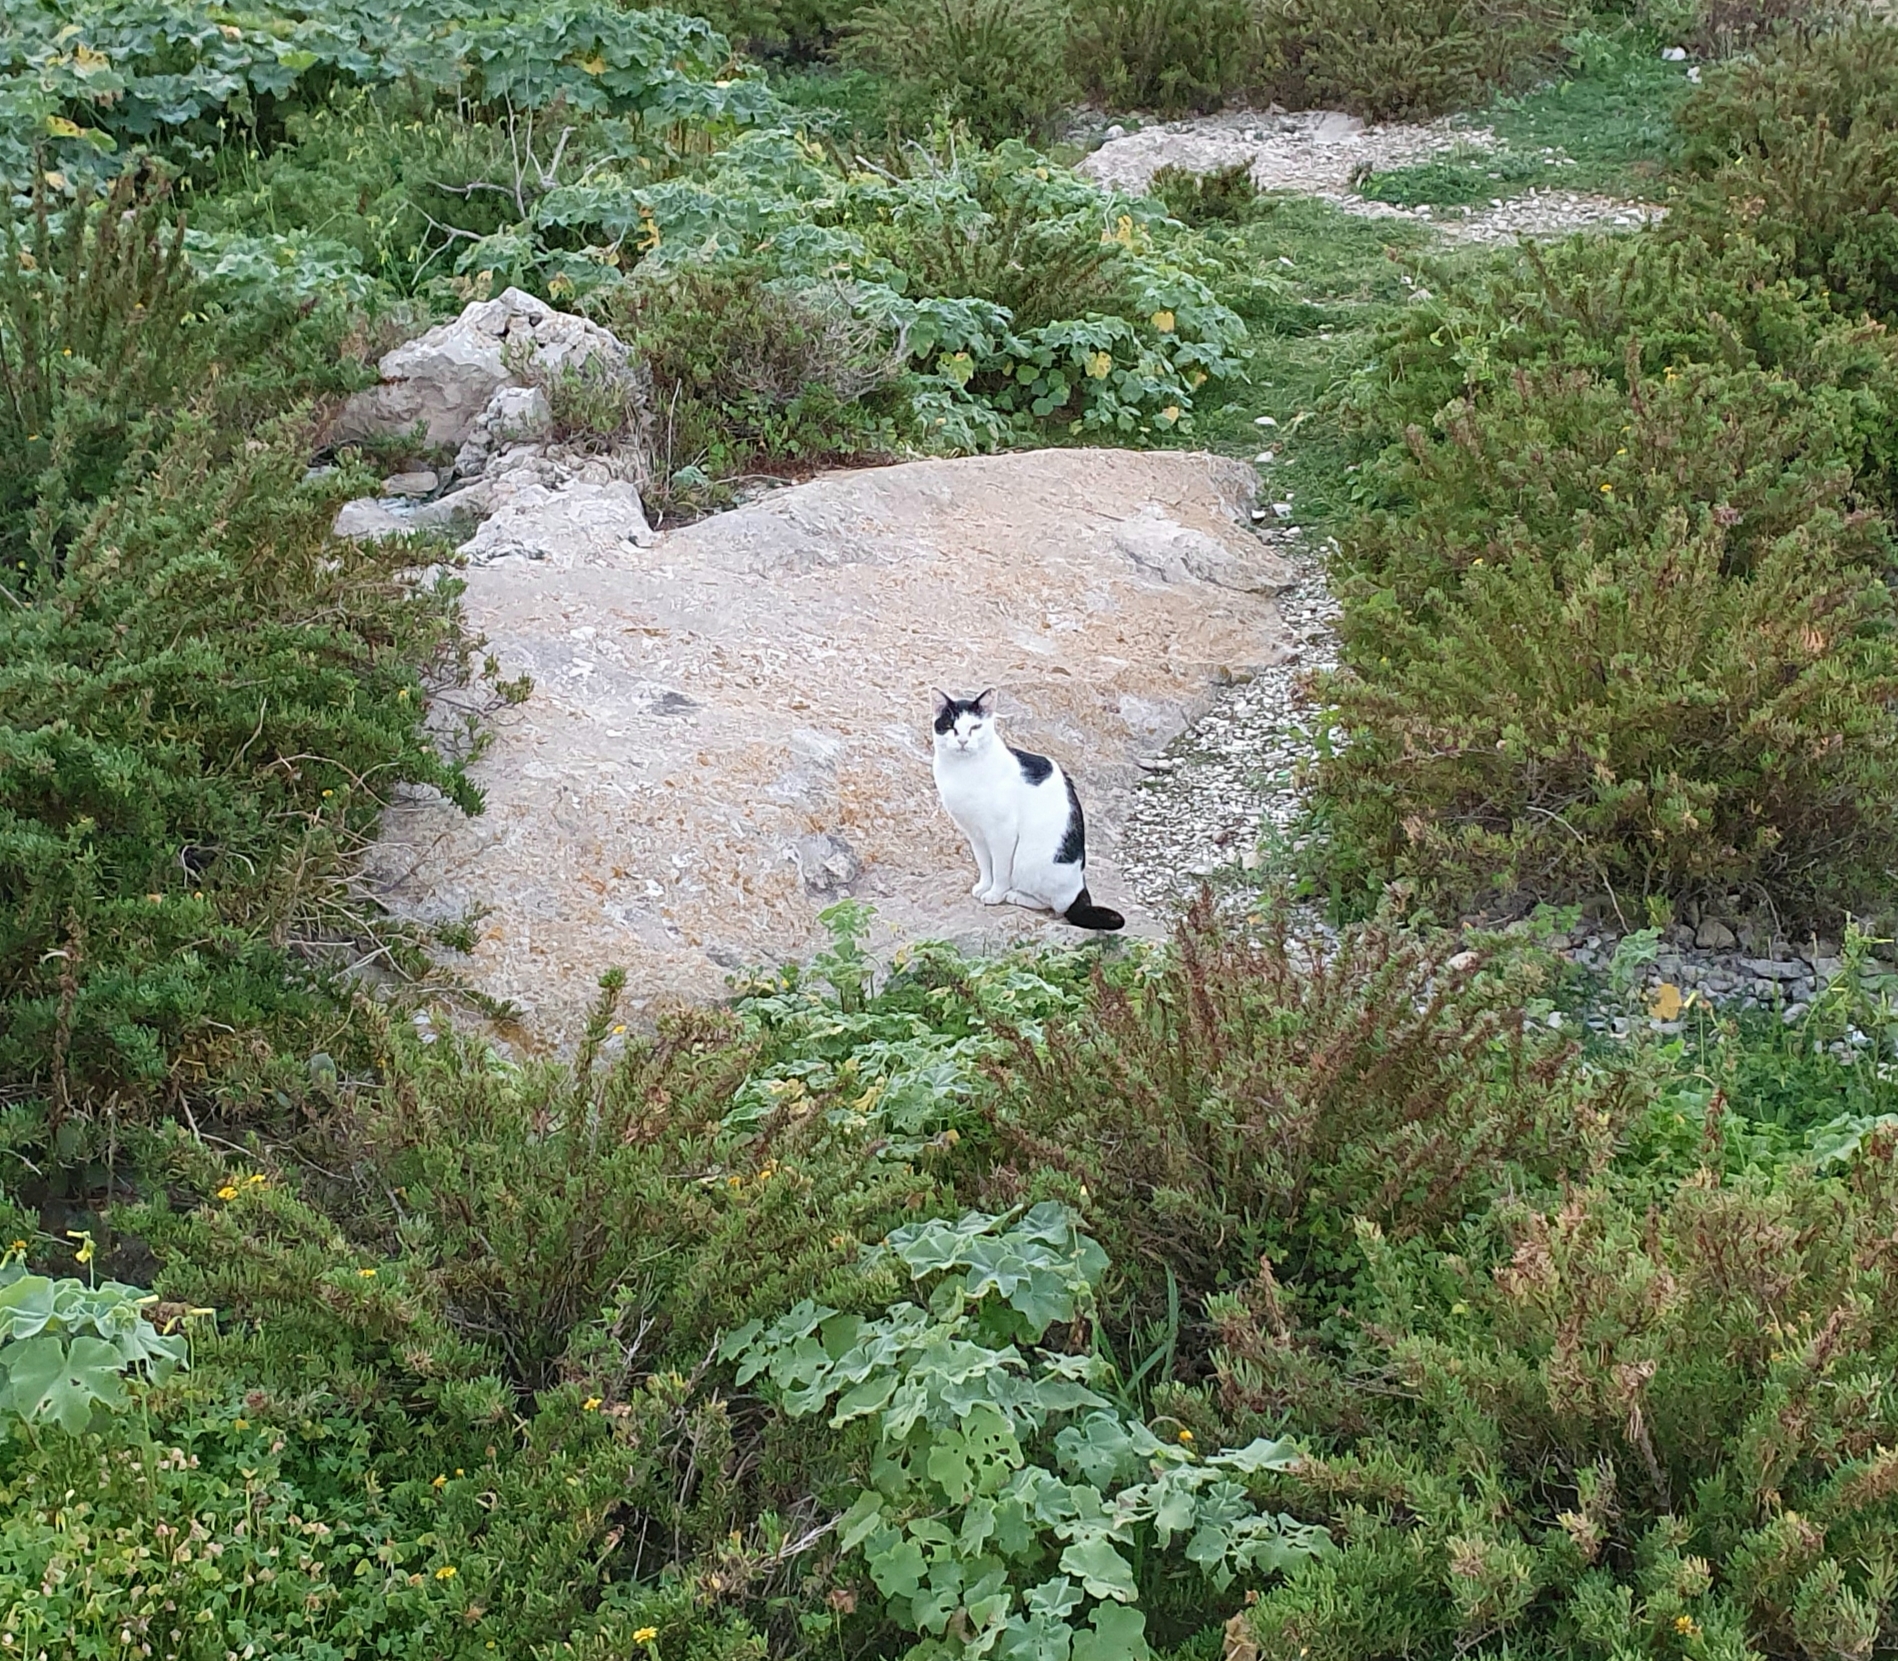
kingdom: Animalia
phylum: Chordata
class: Mammalia
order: Carnivora
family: Felidae
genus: Felis
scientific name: Felis catus
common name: Domestic cat
